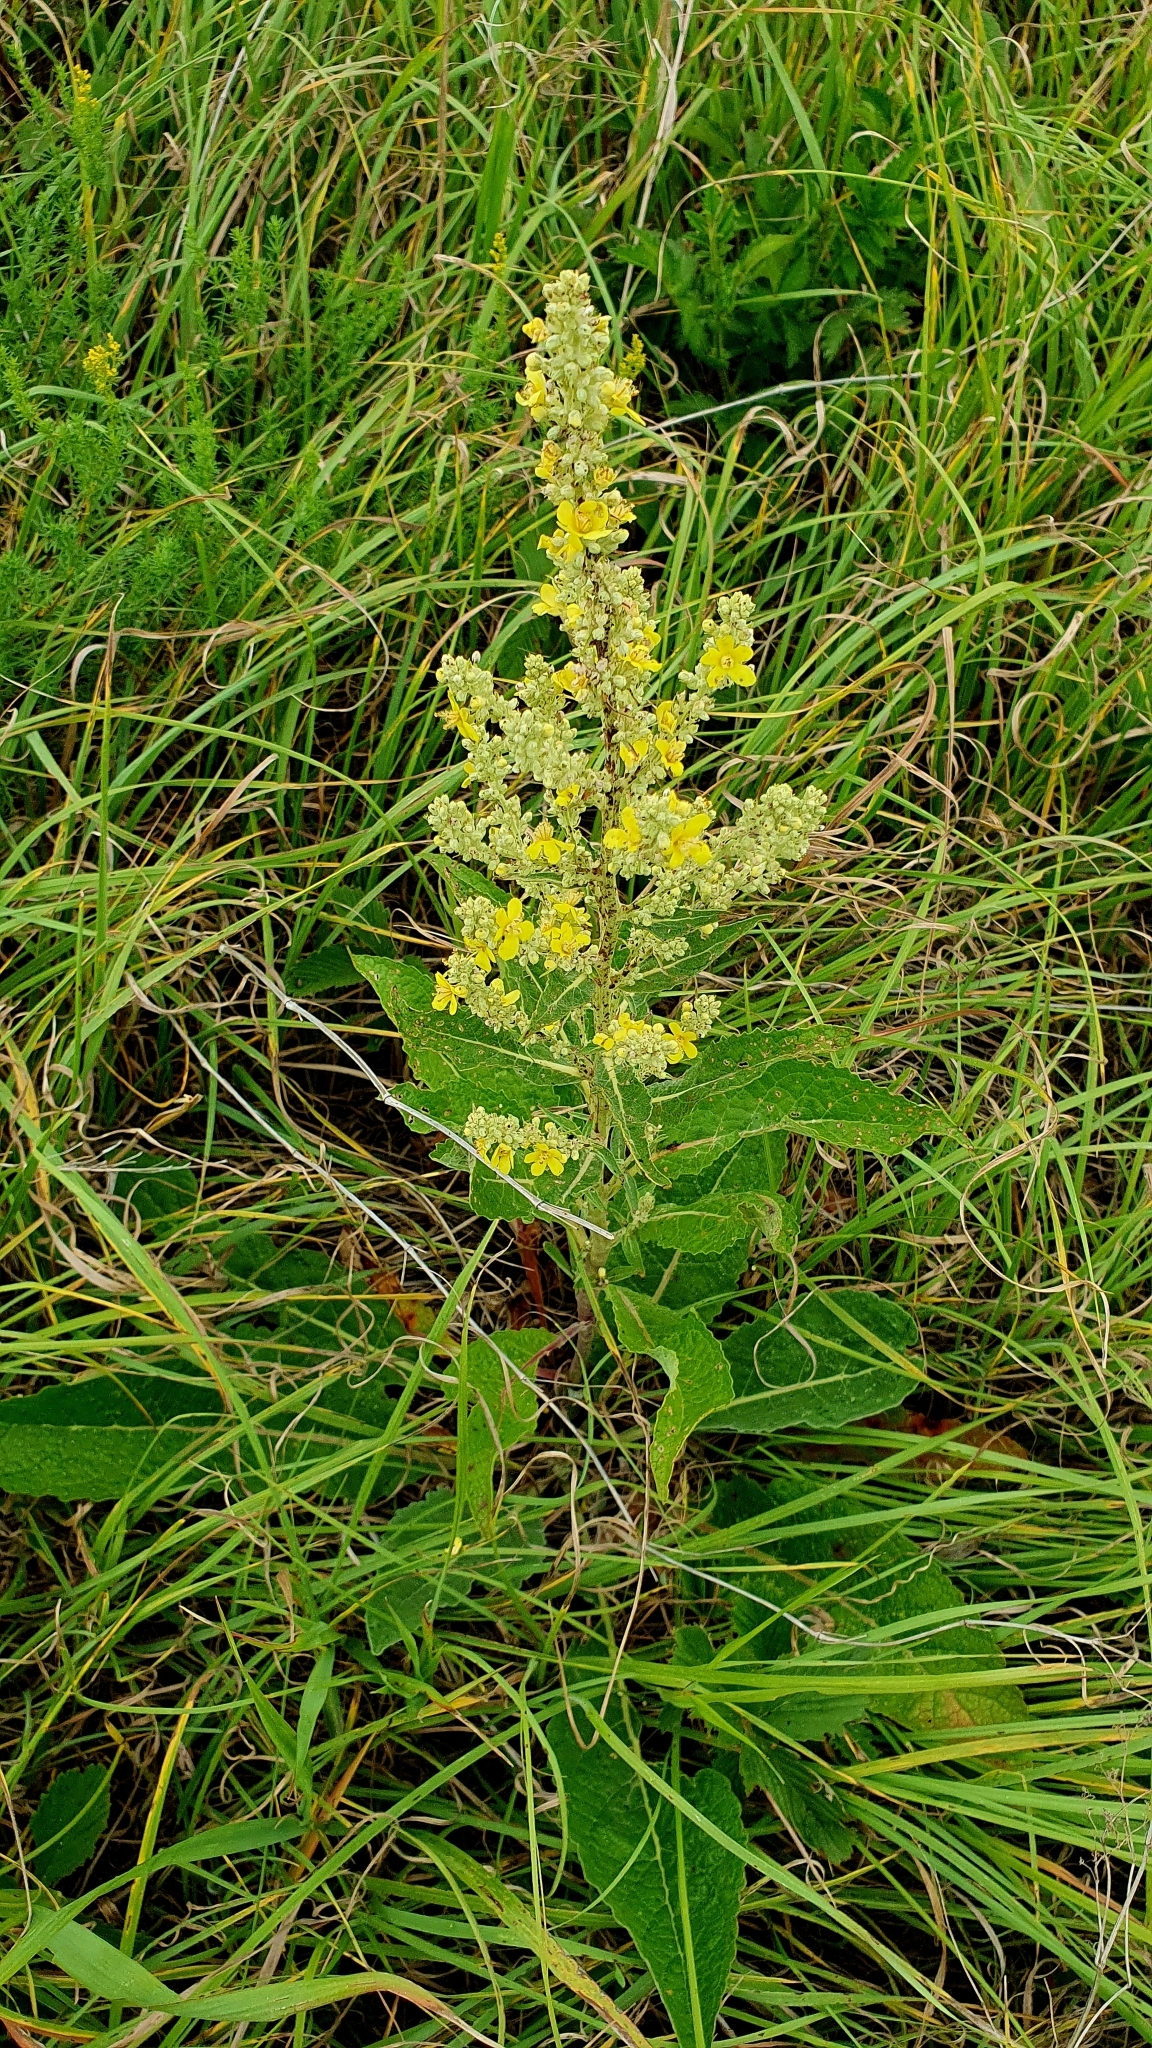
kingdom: Plantae
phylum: Tracheophyta
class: Magnoliopsida
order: Lamiales
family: Scrophulariaceae
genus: Verbascum
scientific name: Verbascum lychnitis
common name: White mullein
